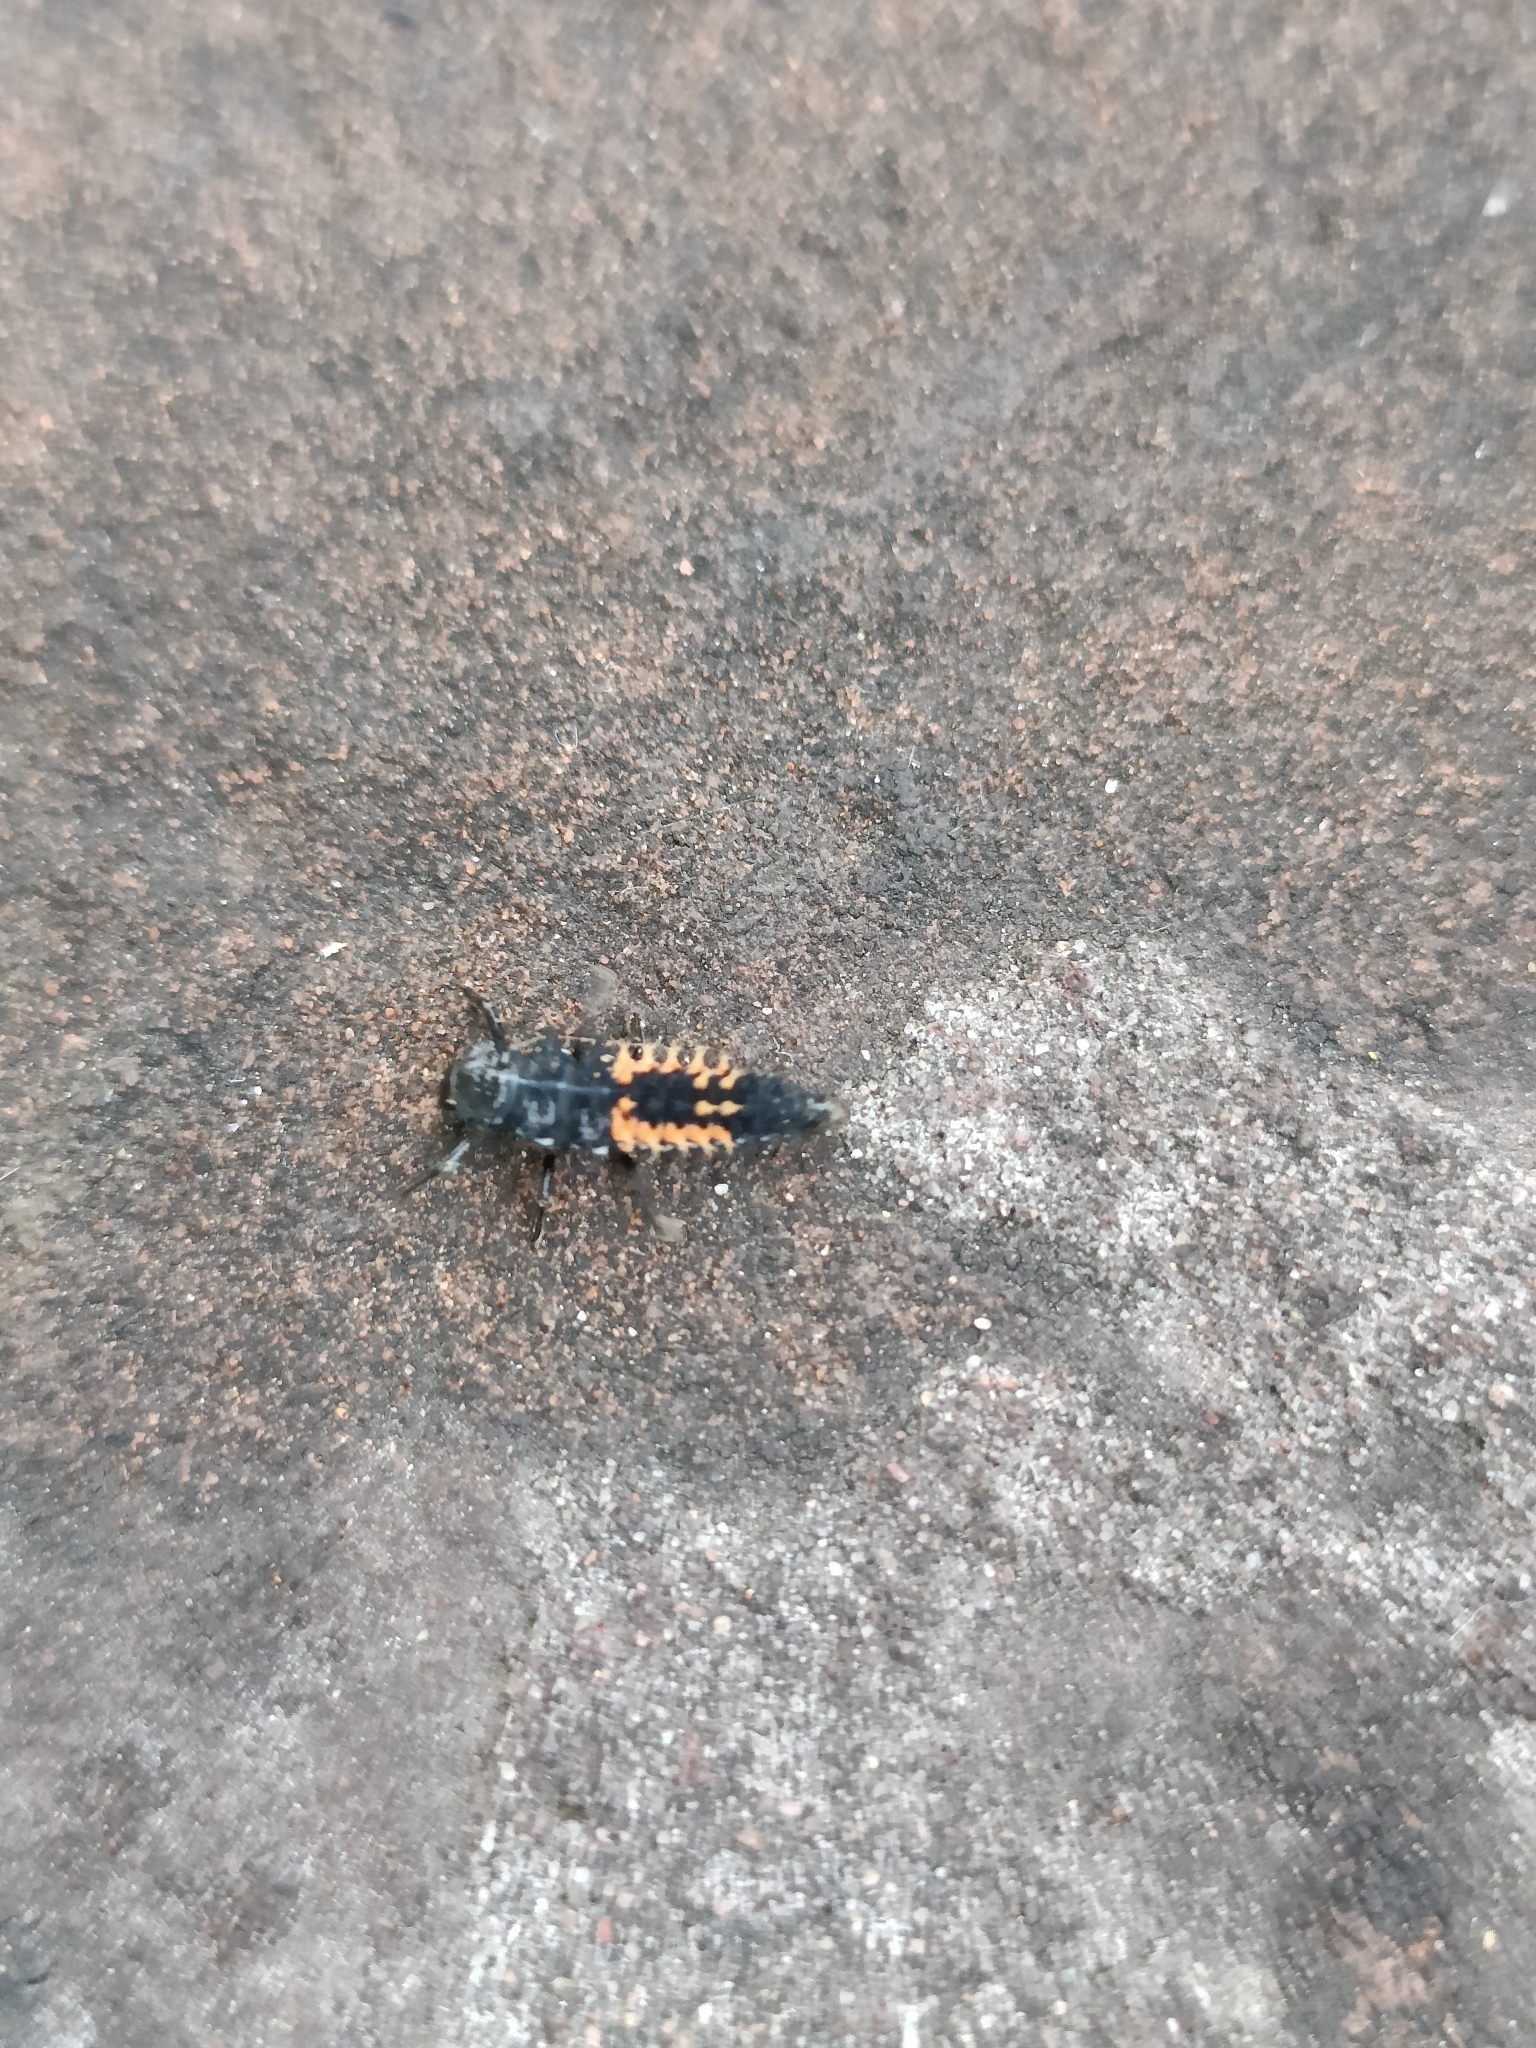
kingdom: Animalia
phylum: Arthropoda
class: Insecta
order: Coleoptera
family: Coccinellidae
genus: Harmonia
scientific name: Harmonia axyridis
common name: Harlequin ladybird
